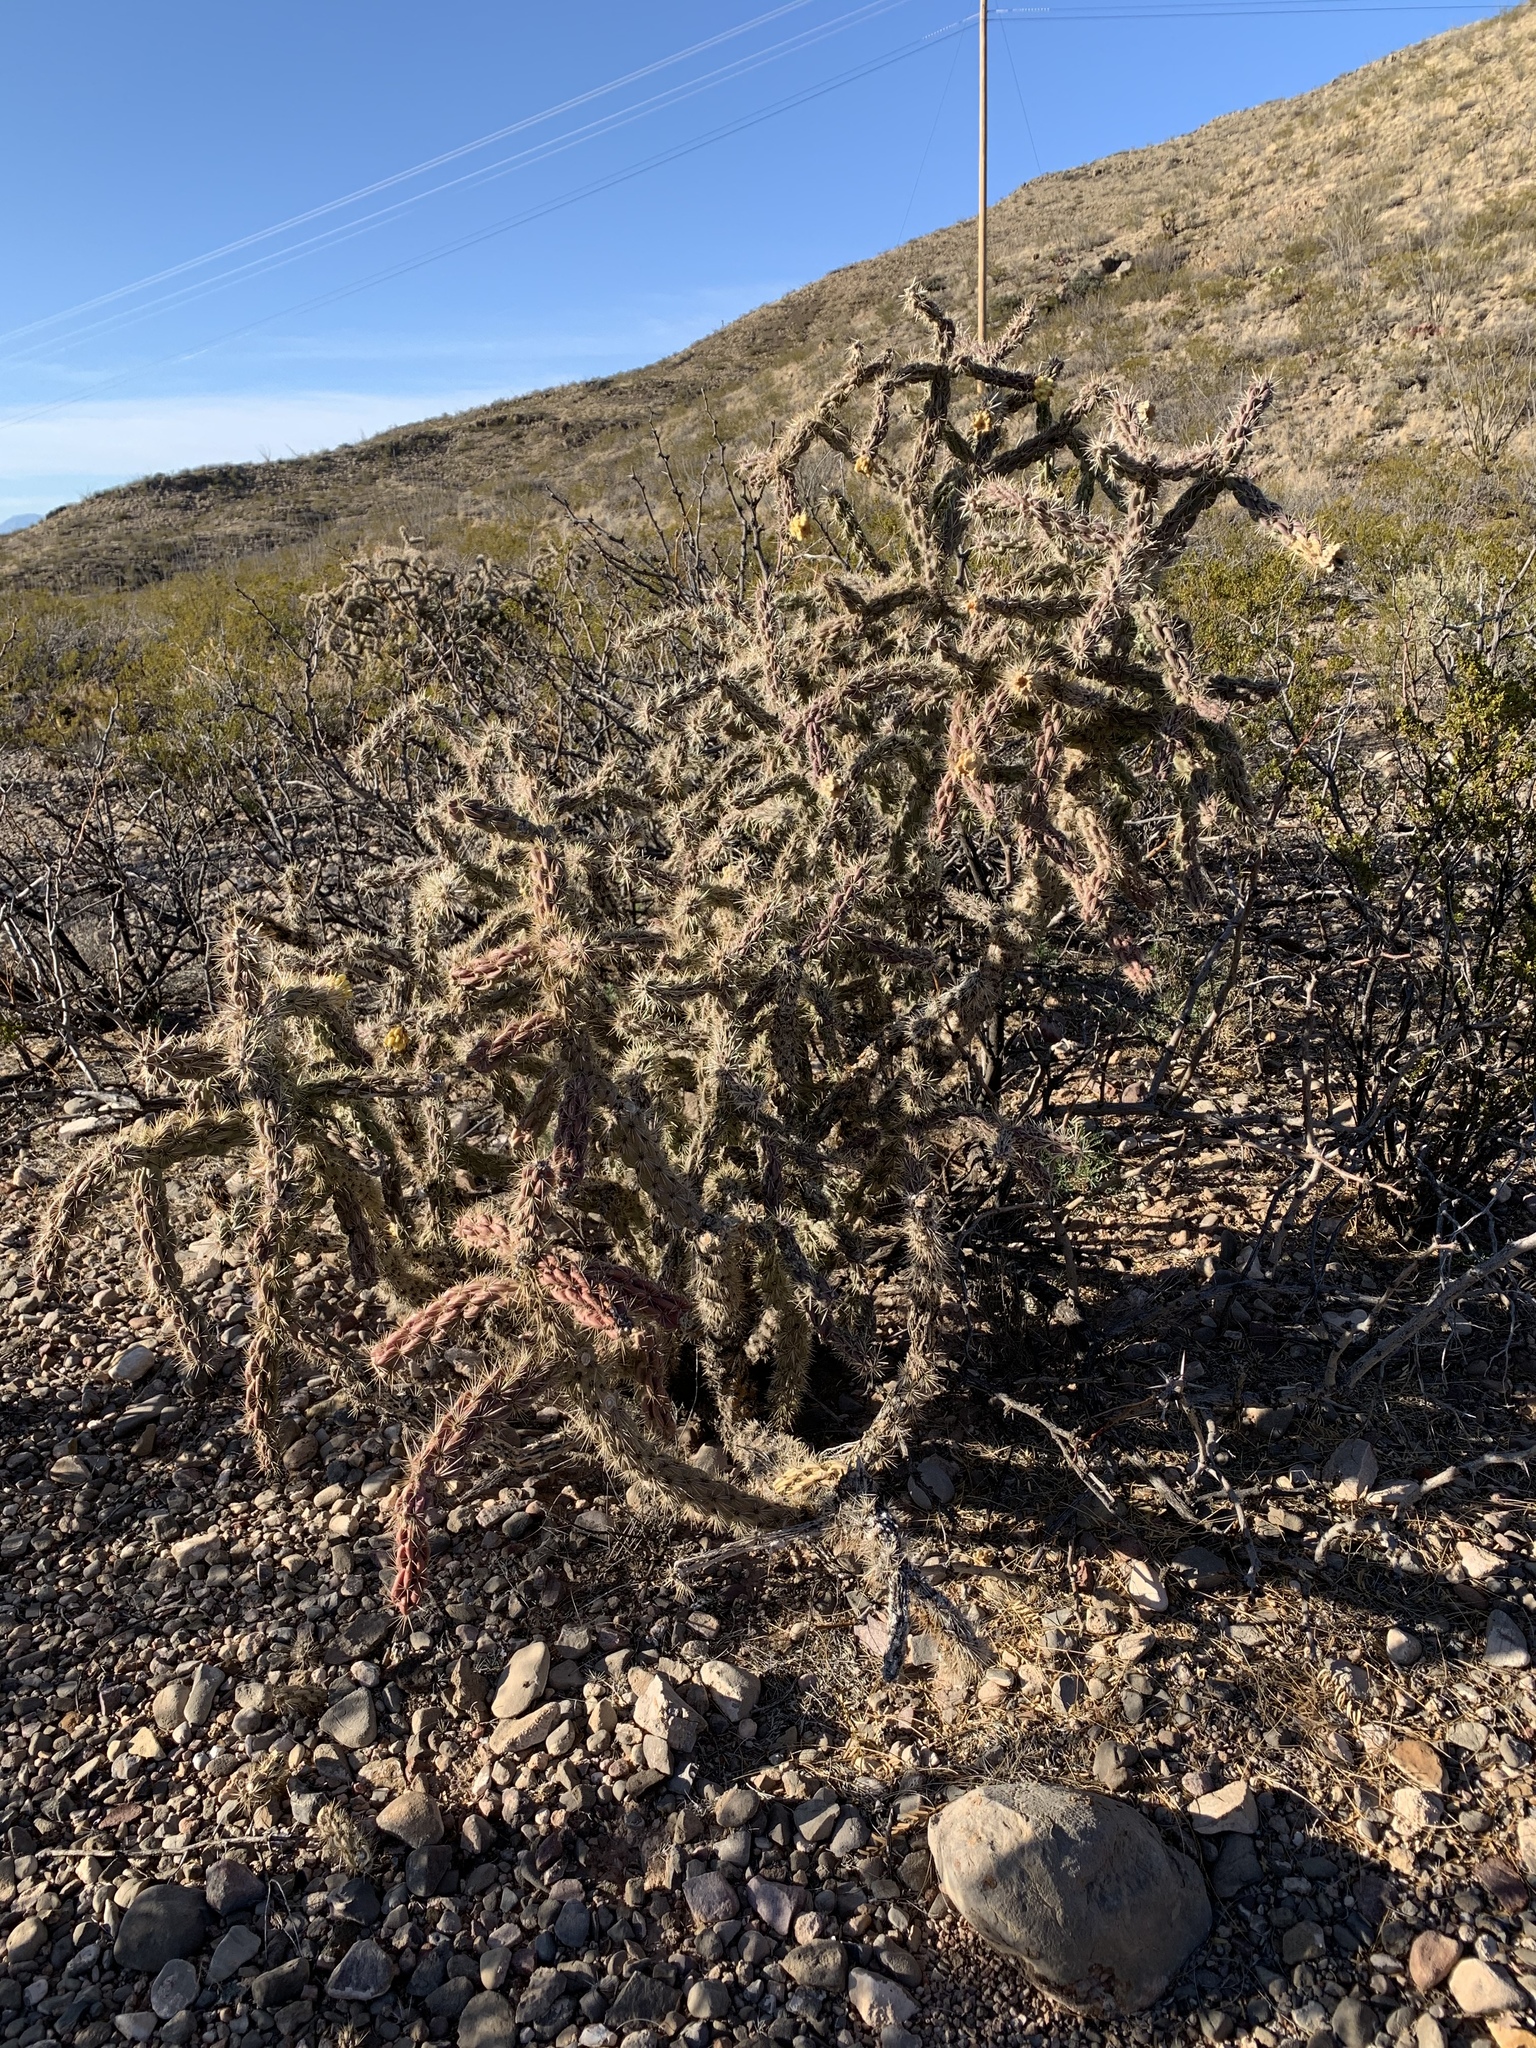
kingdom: Plantae
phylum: Tracheophyta
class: Magnoliopsida
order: Caryophyllales
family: Cactaceae
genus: Cylindropuntia
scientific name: Cylindropuntia imbricata
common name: Candelabrum cactus
